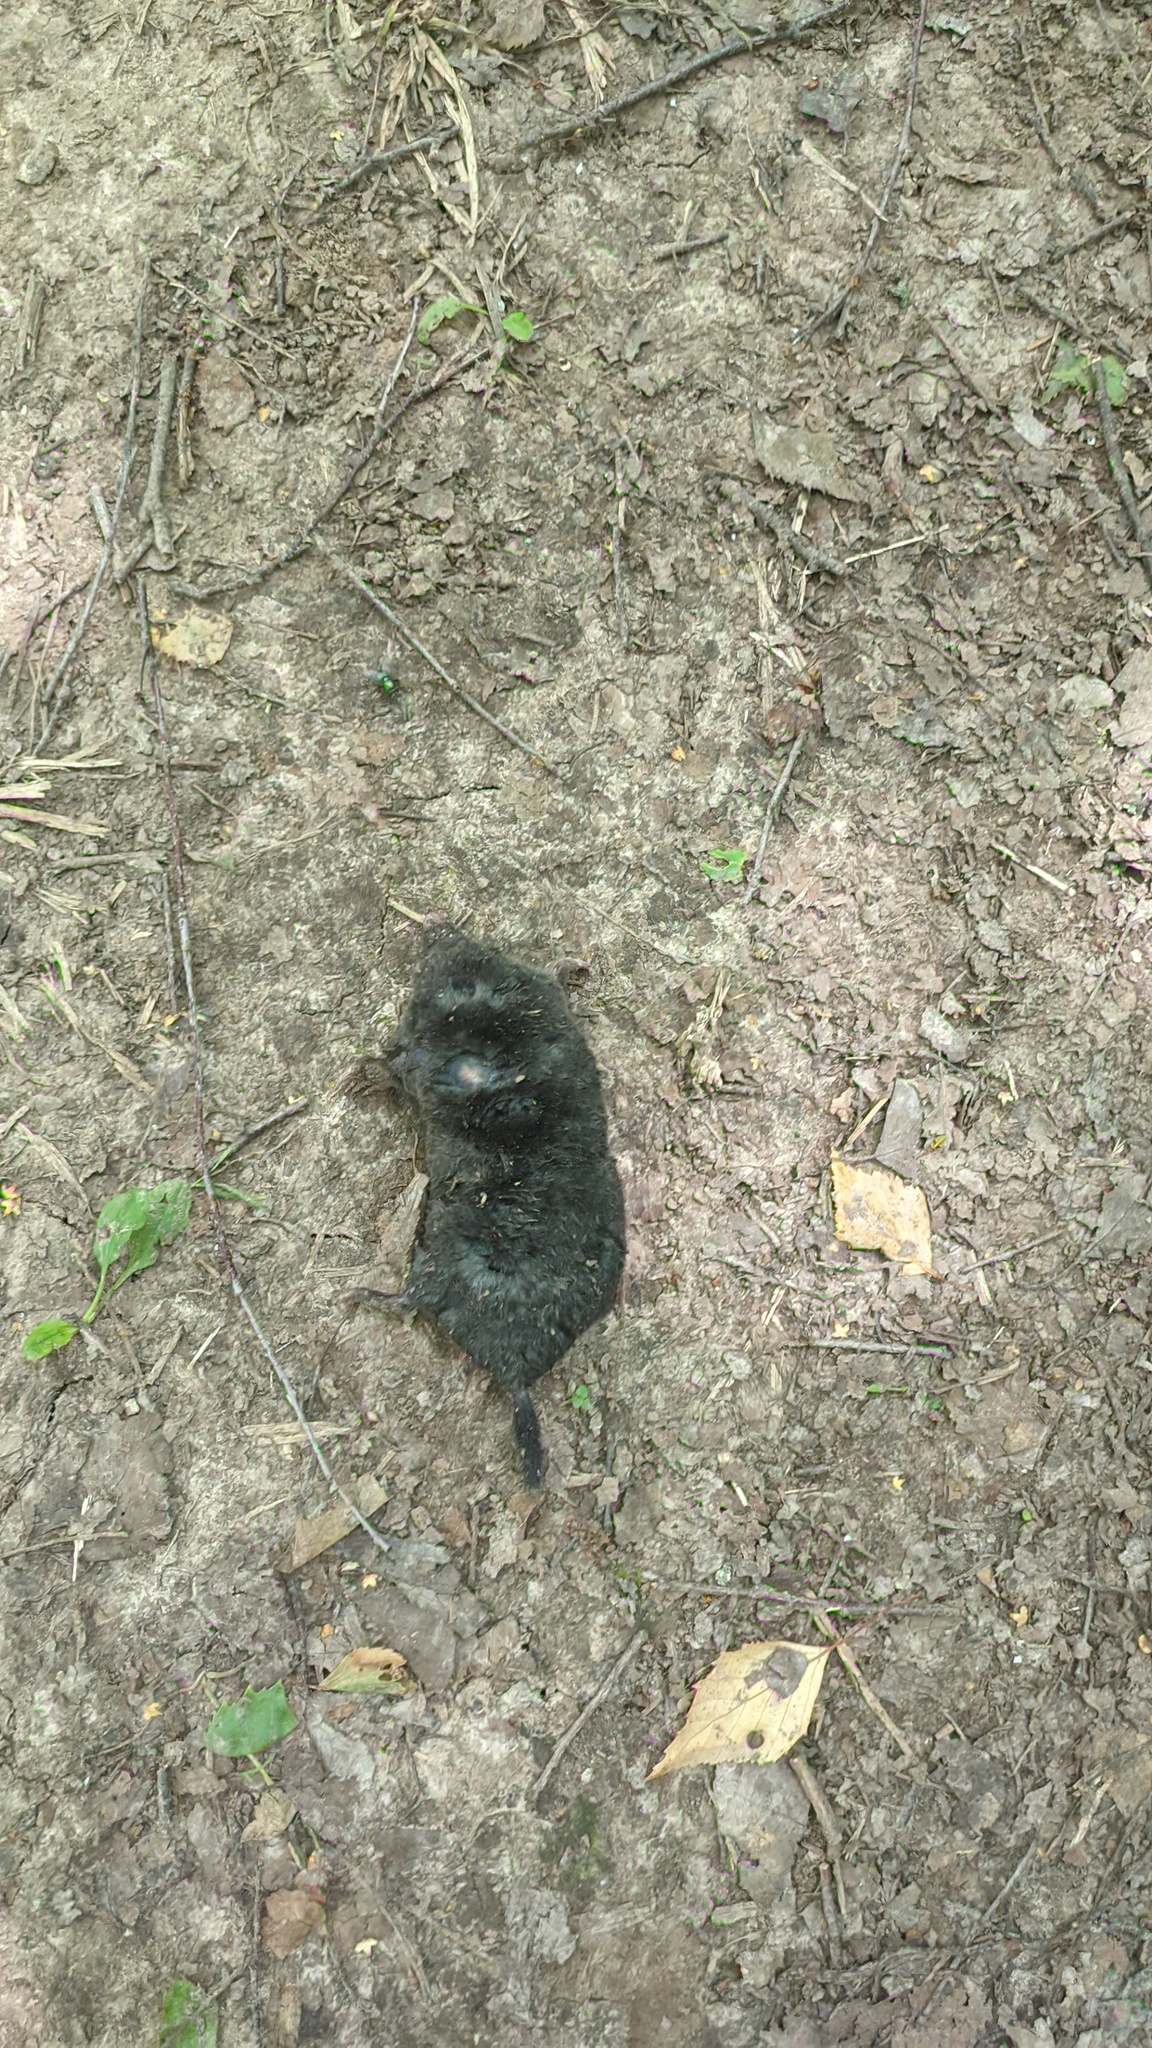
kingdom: Animalia
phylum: Chordata
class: Mammalia
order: Soricomorpha
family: Talpidae
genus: Talpa
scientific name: Talpa europaea
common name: European mole
